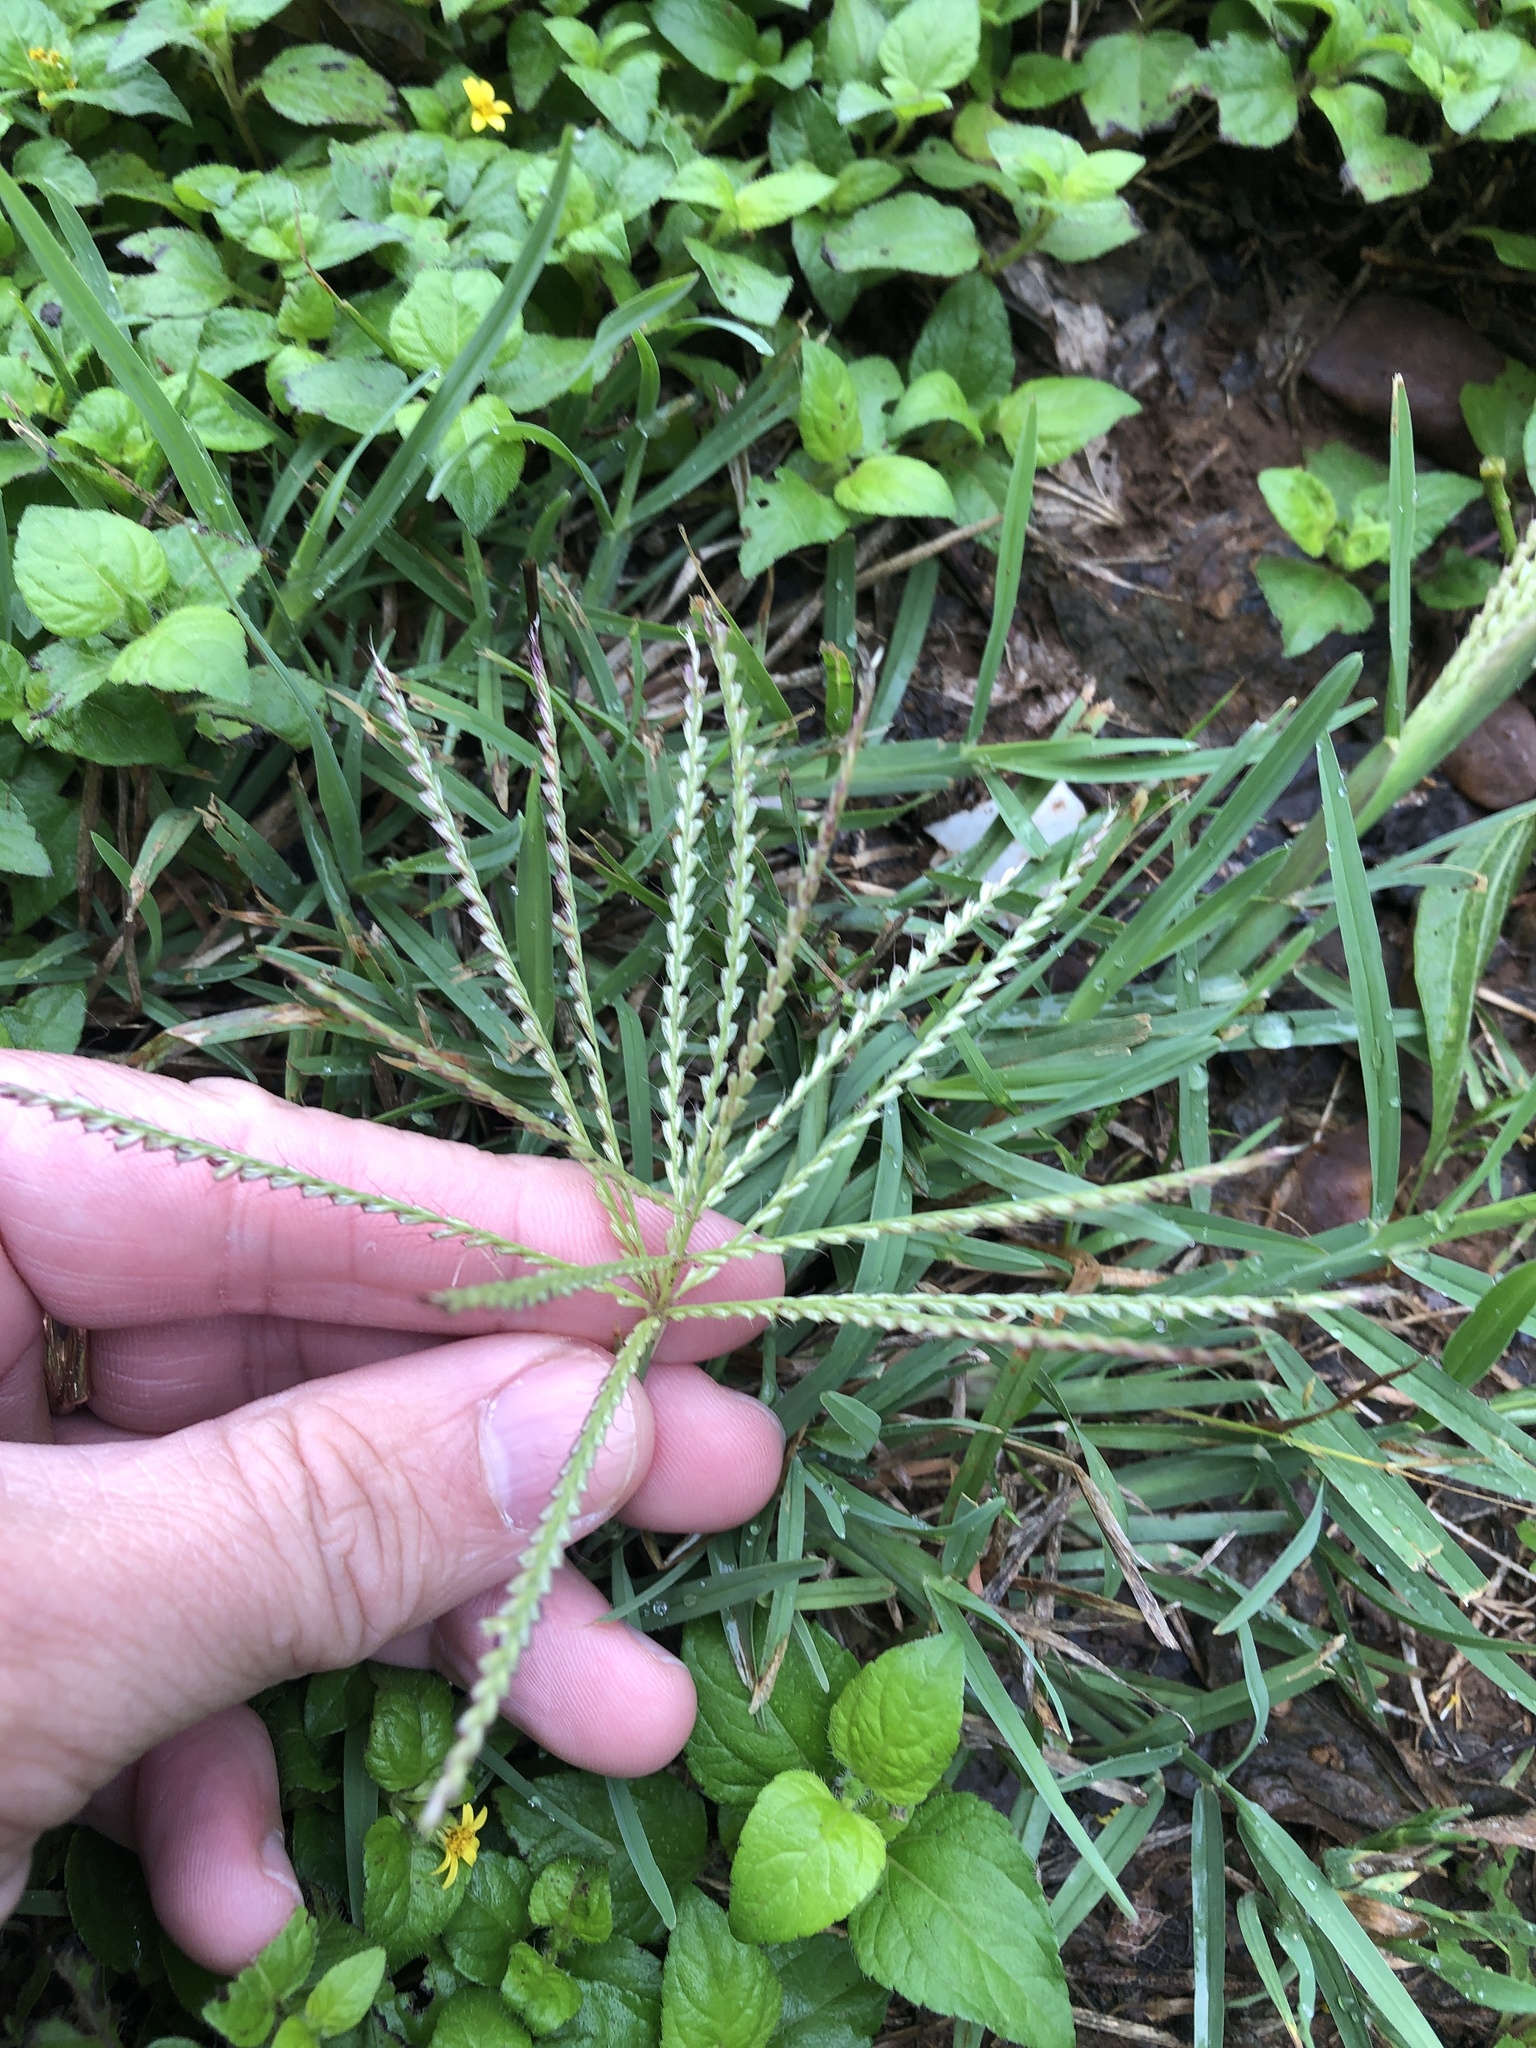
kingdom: Plantae
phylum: Tracheophyta
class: Liliopsida
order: Poales
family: Poaceae
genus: Chloris
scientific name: Chloris verticillata
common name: Tumble windmill grass
